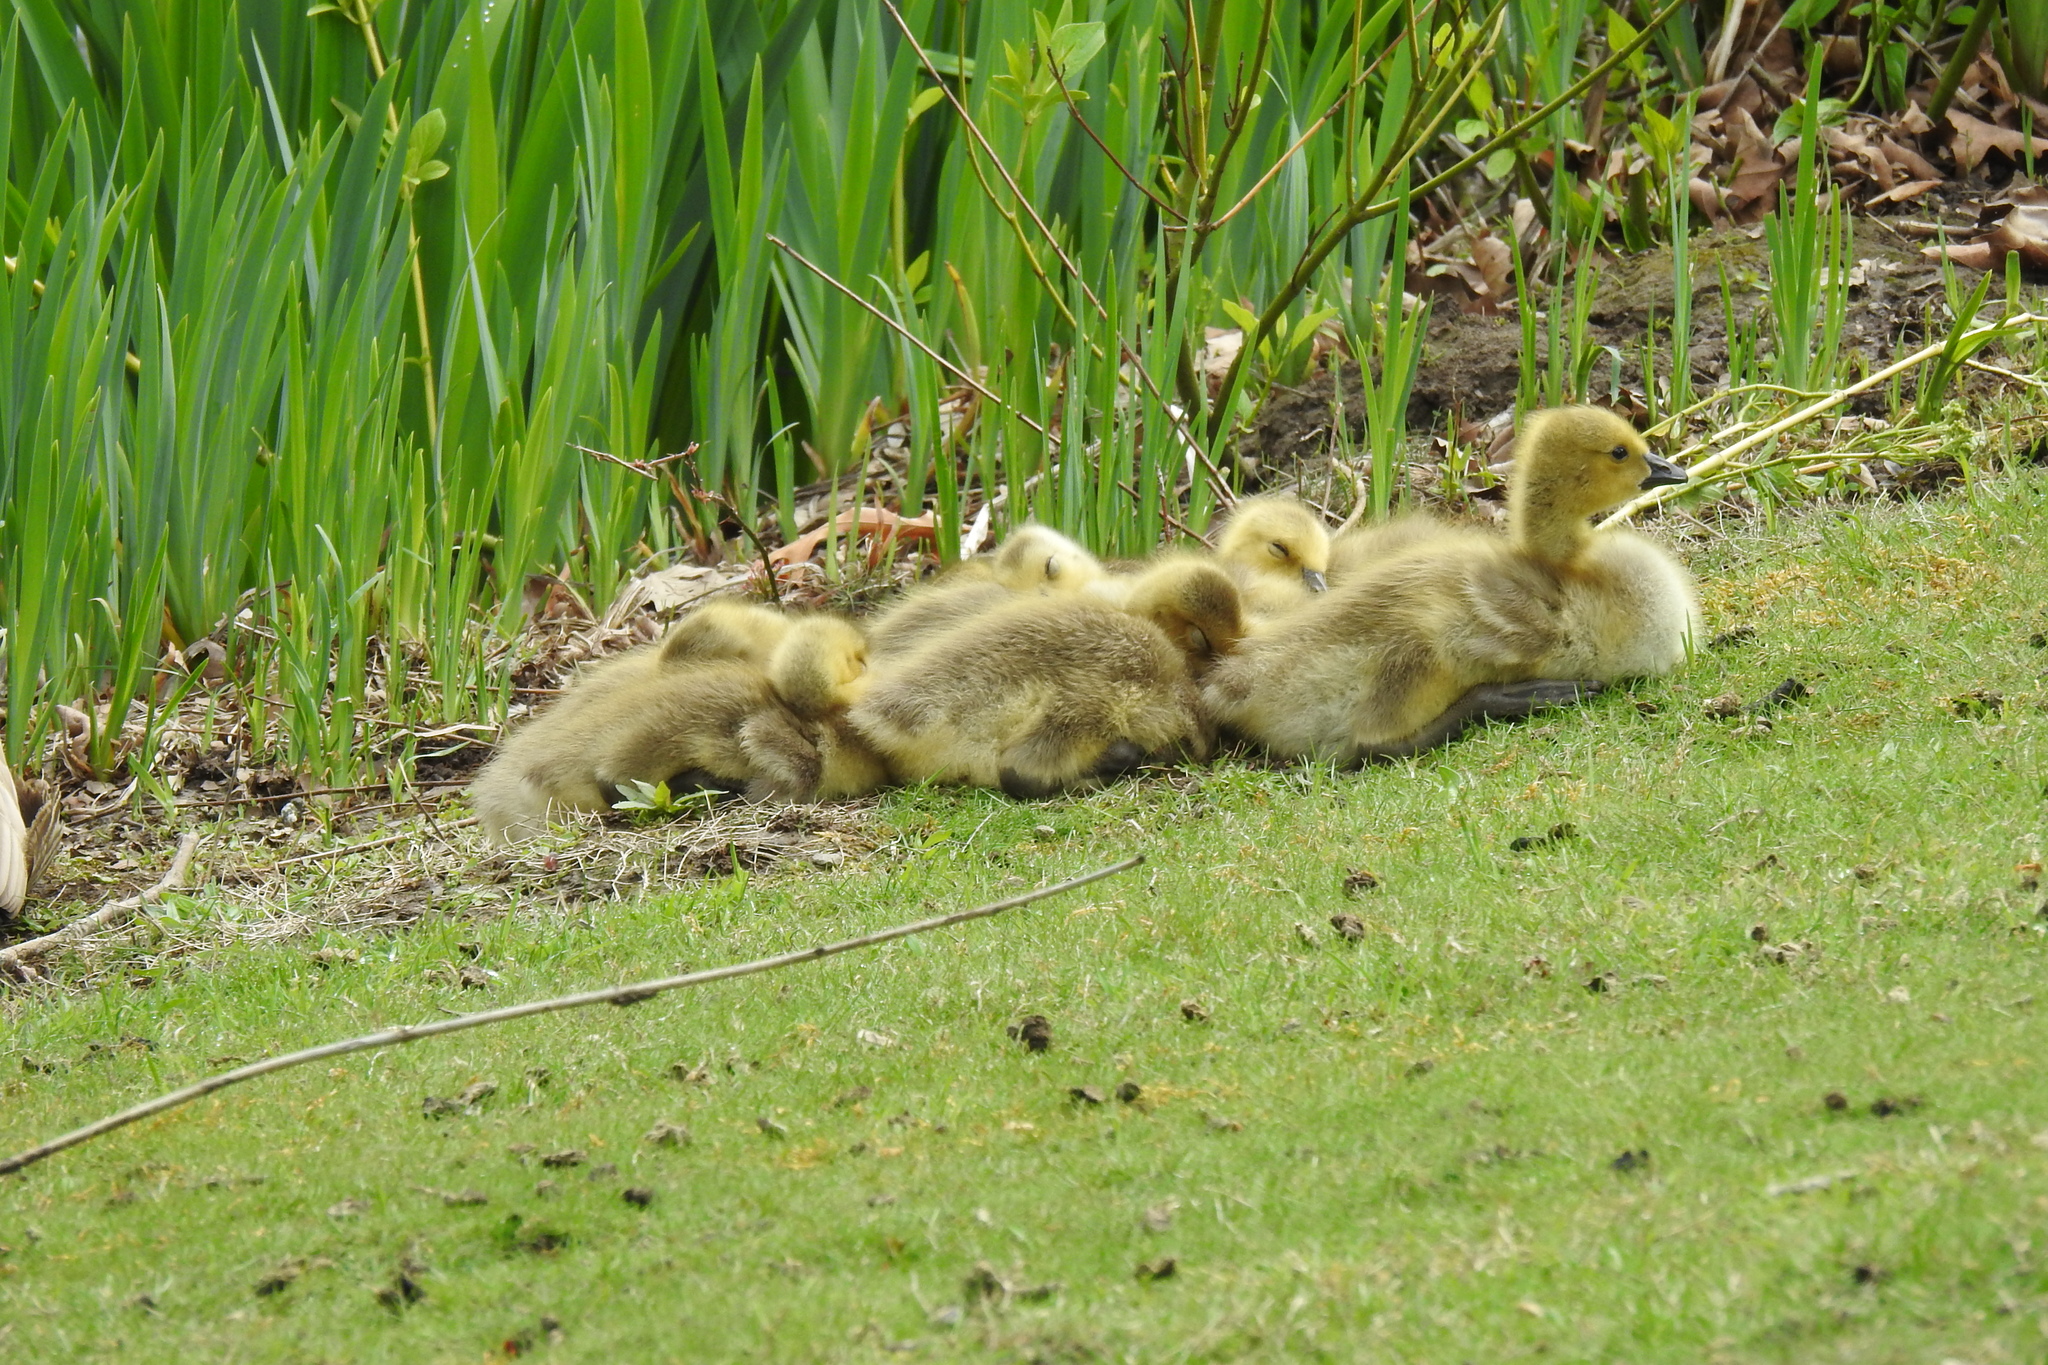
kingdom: Animalia
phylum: Chordata
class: Aves
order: Anseriformes
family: Anatidae
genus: Branta
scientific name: Branta canadensis
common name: Canada goose
